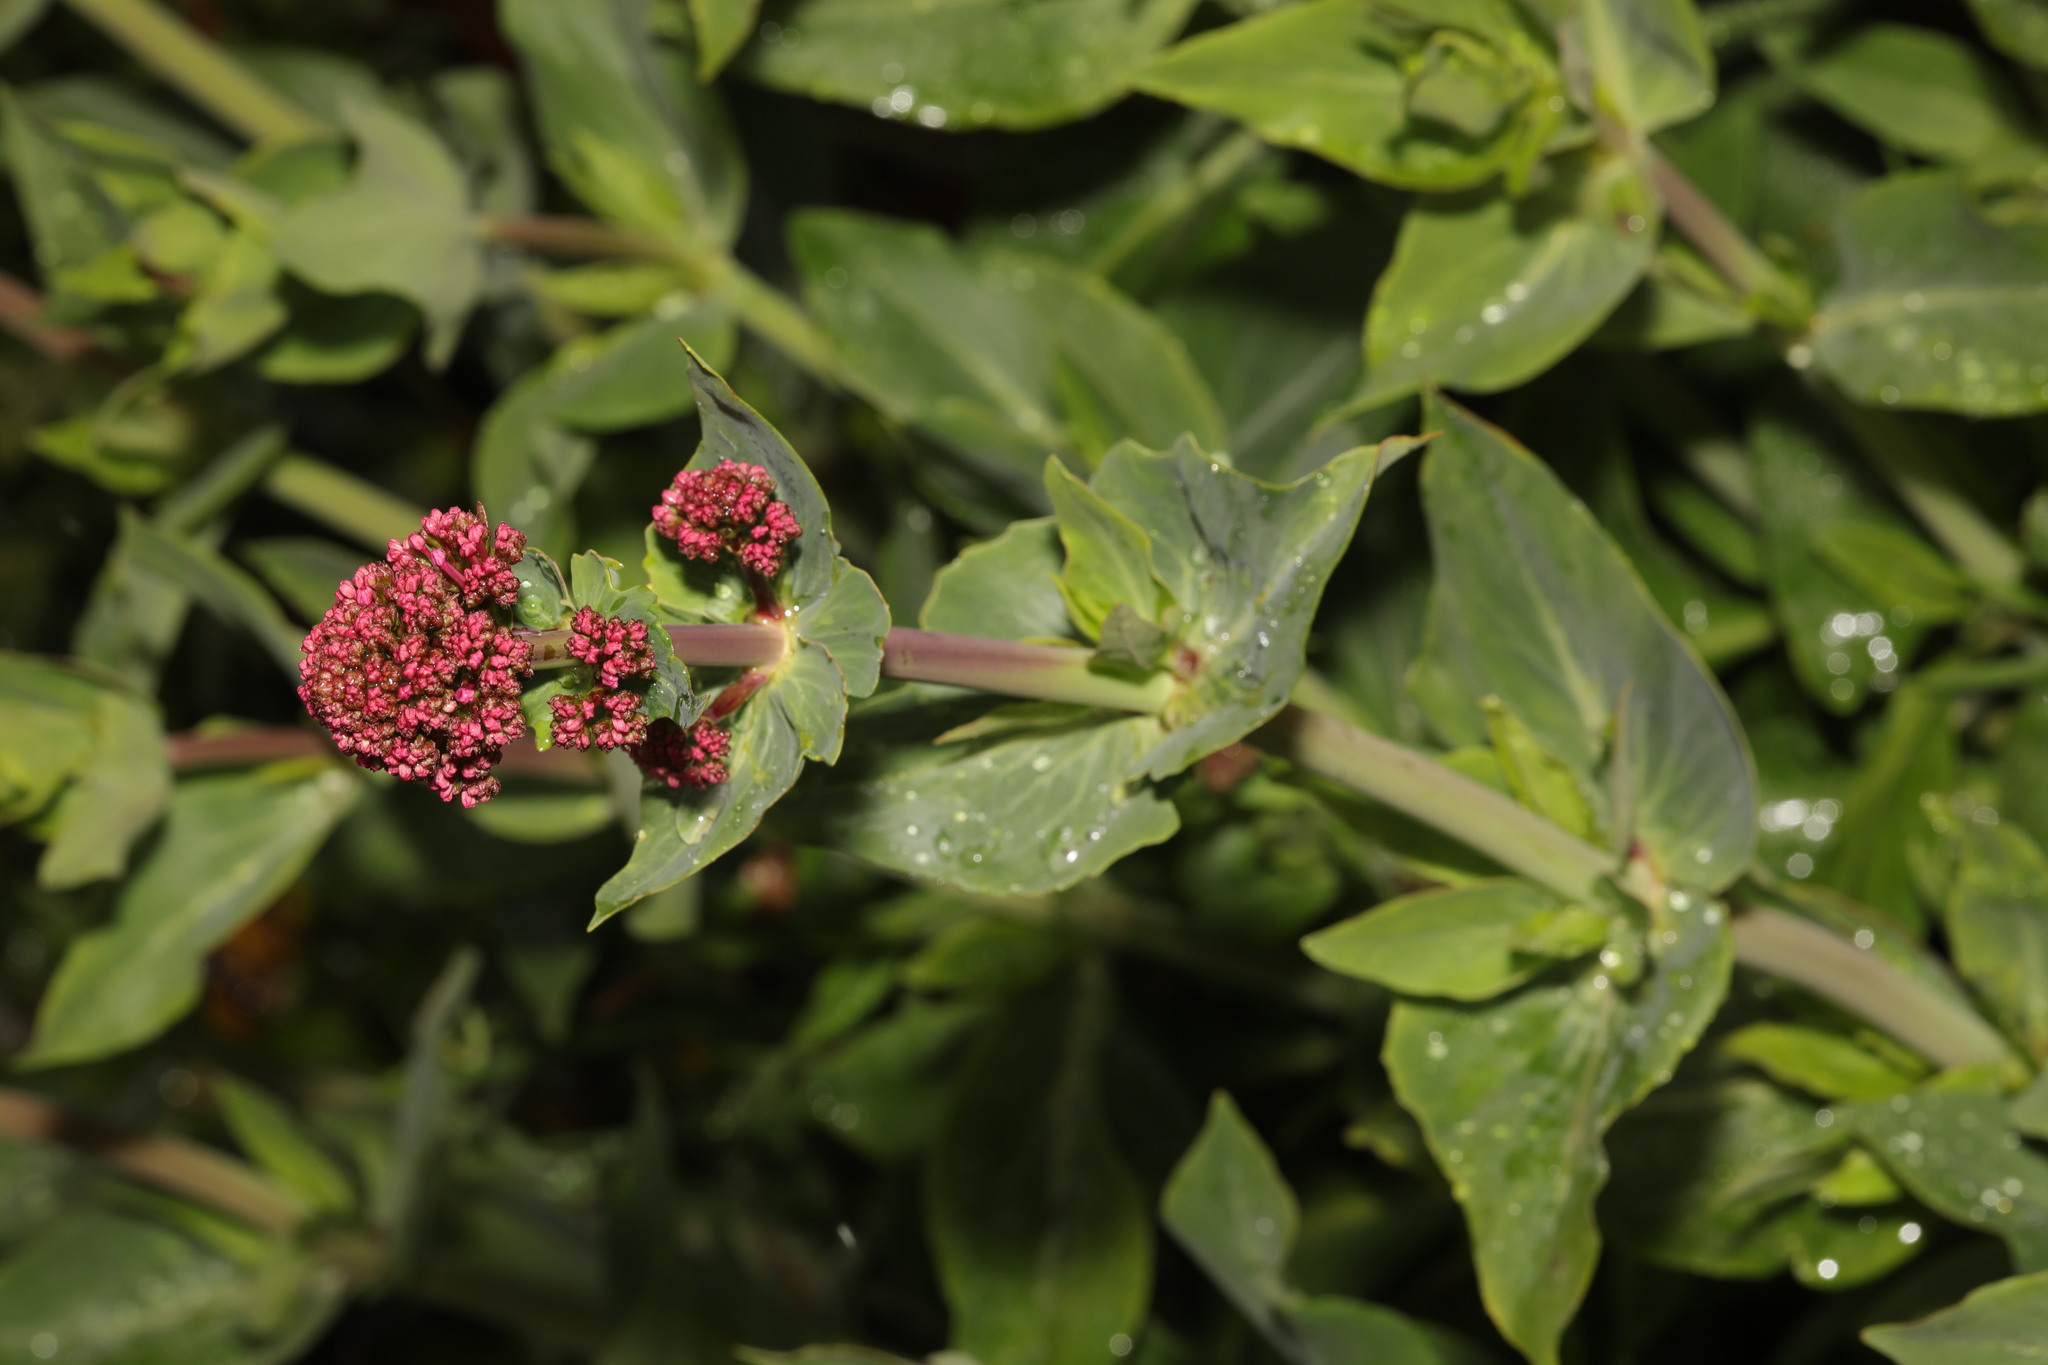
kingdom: Plantae
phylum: Tracheophyta
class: Magnoliopsida
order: Dipsacales
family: Caprifoliaceae
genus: Centranthus
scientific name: Centranthus ruber
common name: Red valerian
